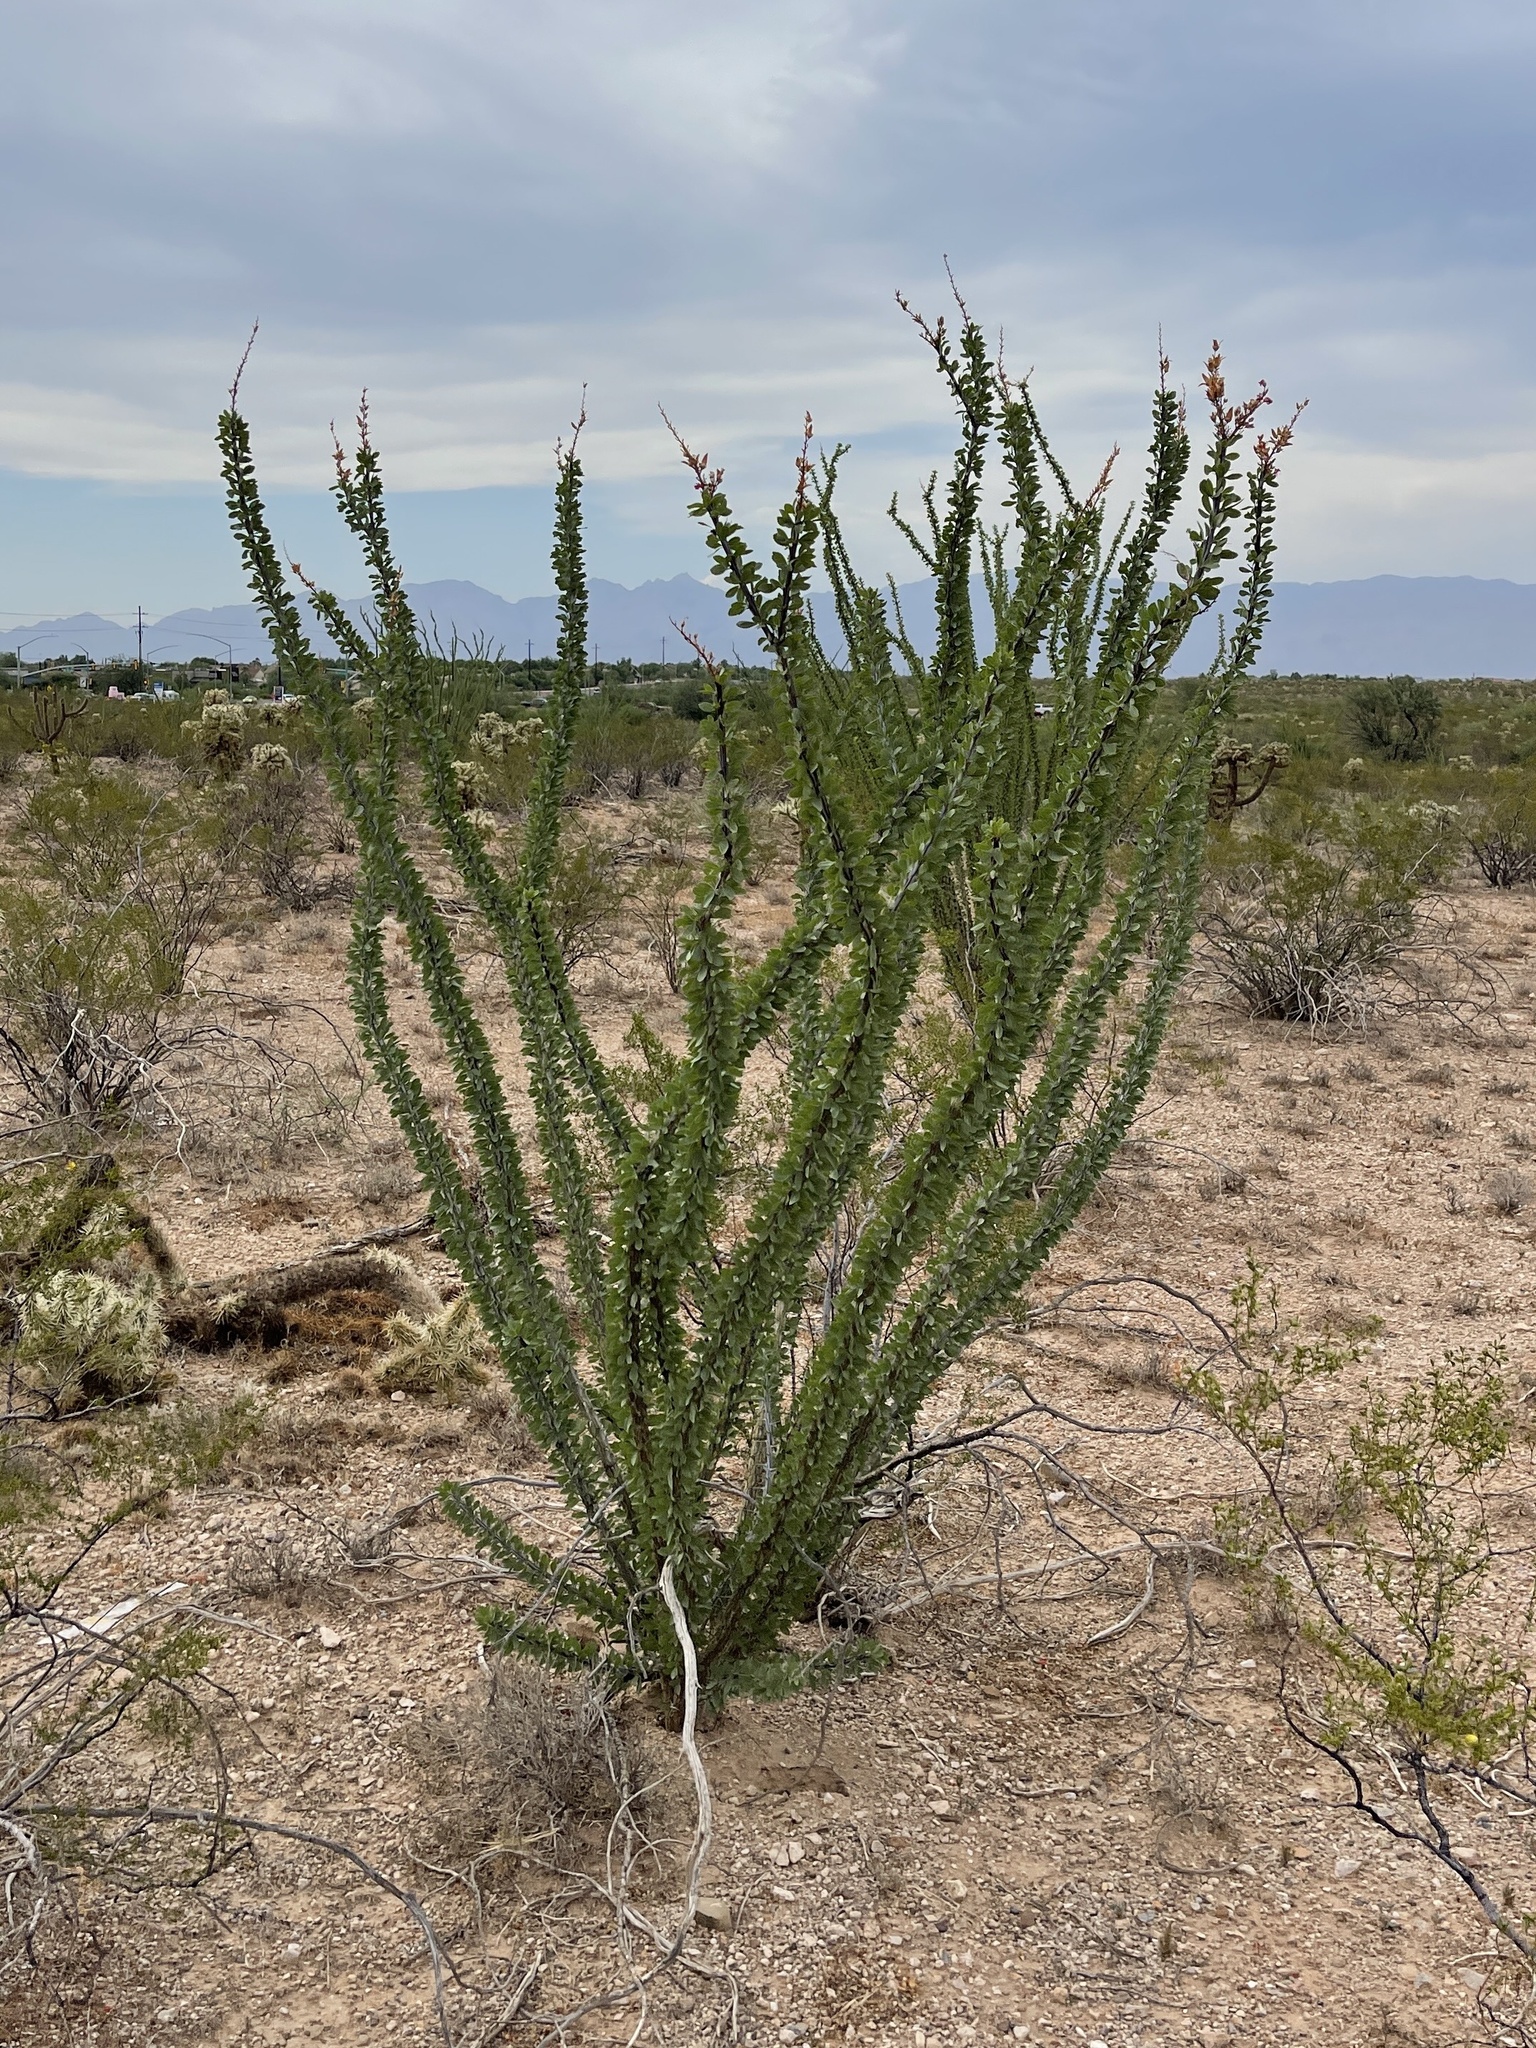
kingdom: Plantae
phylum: Tracheophyta
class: Magnoliopsida
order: Ericales
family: Fouquieriaceae
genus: Fouquieria
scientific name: Fouquieria splendens
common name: Vine-cactus
